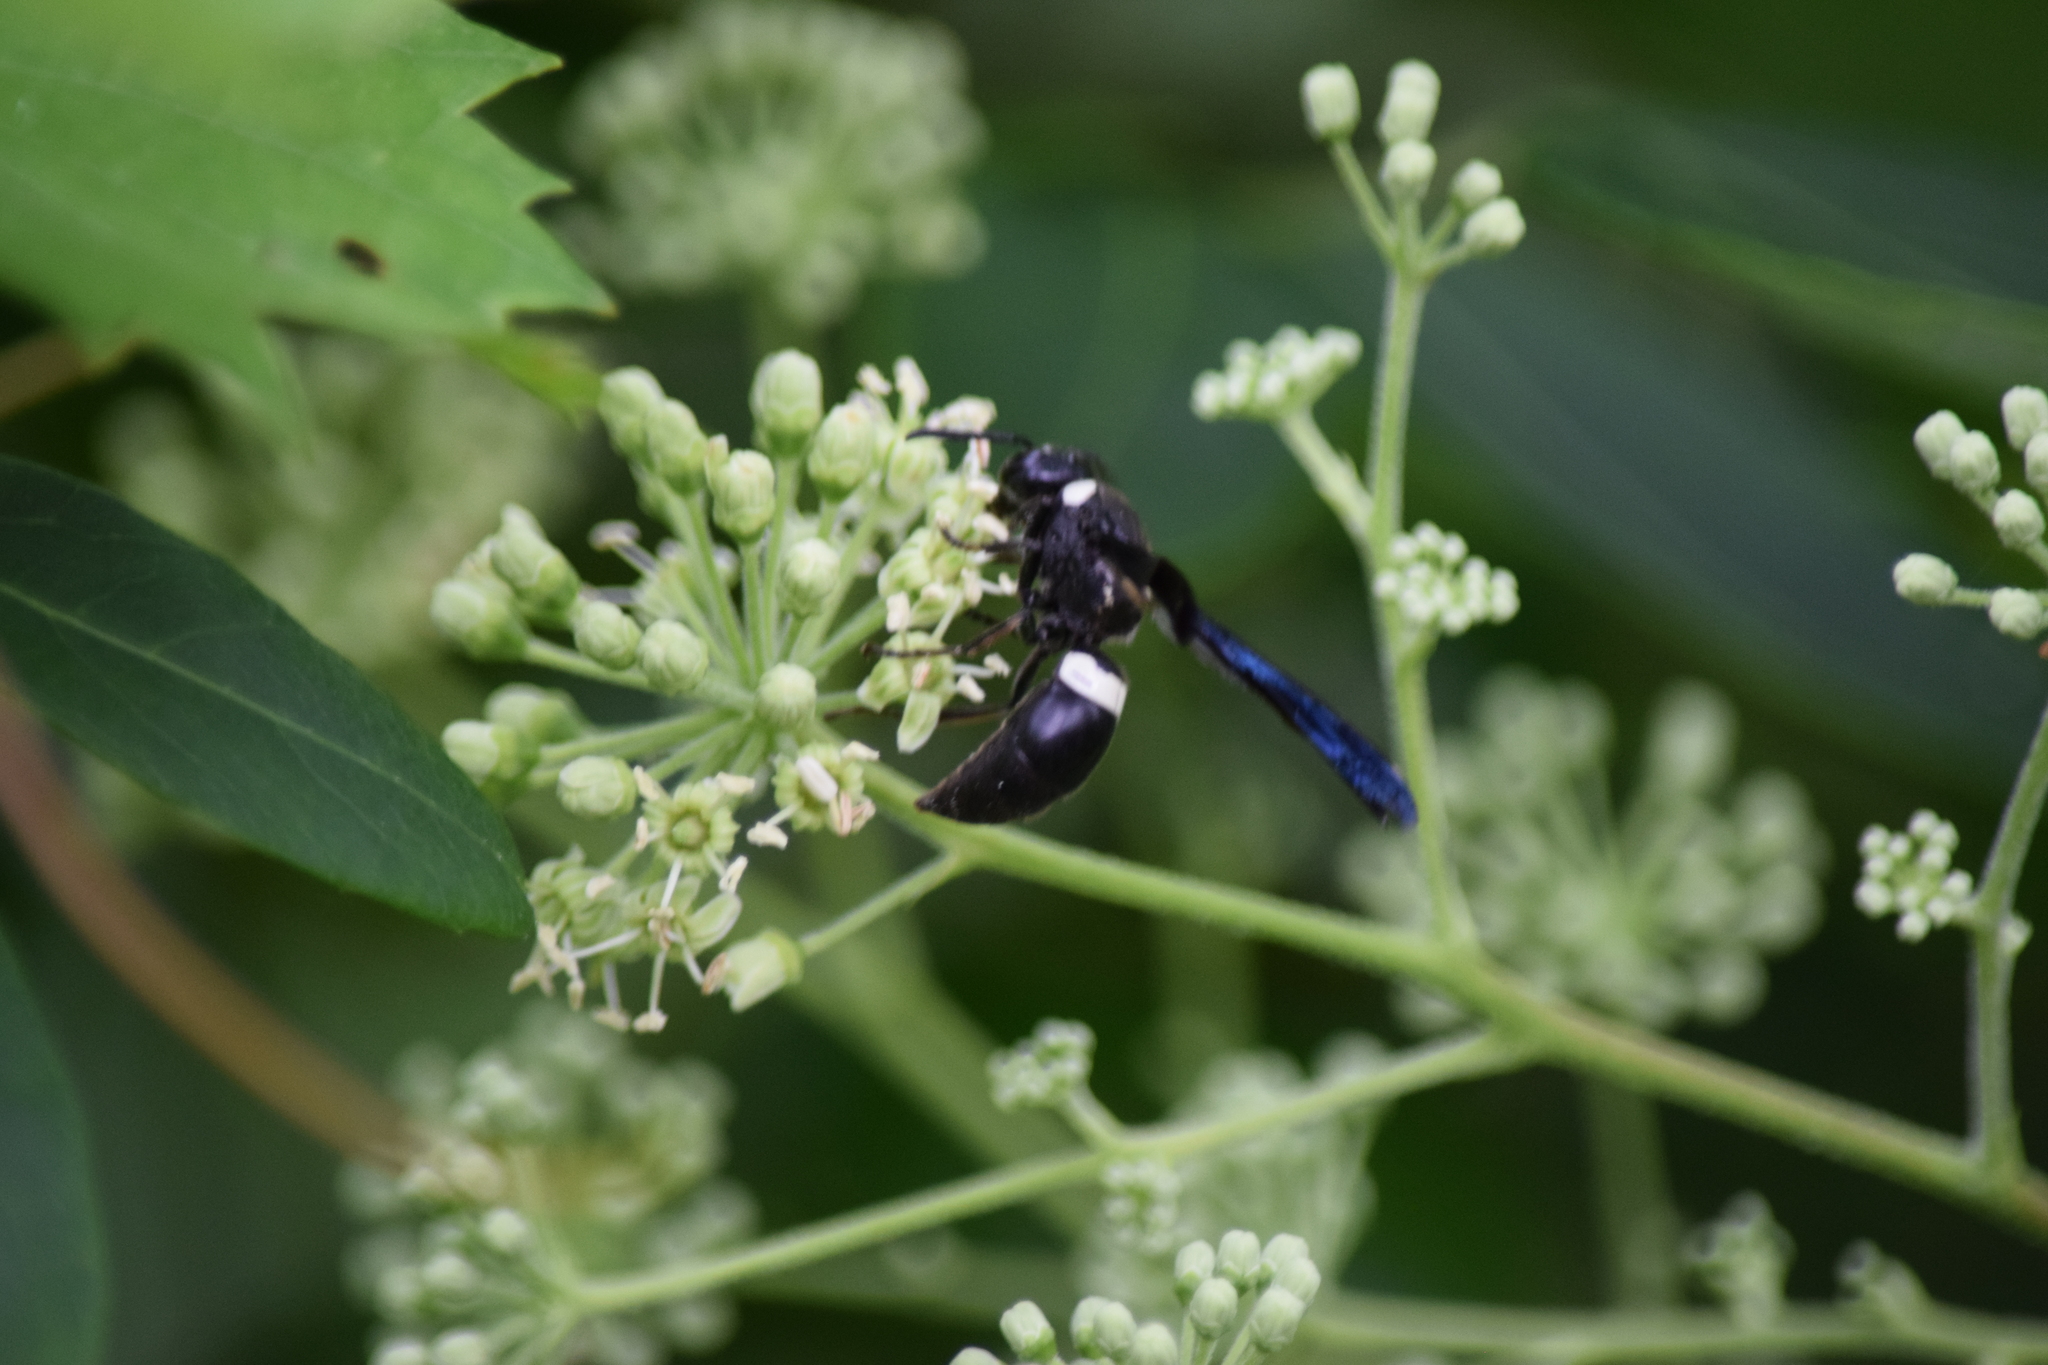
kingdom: Animalia
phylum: Arthropoda
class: Insecta
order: Hymenoptera
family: Eumenidae
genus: Monobia
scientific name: Monobia quadridens
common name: Four-toothed mason wasp
